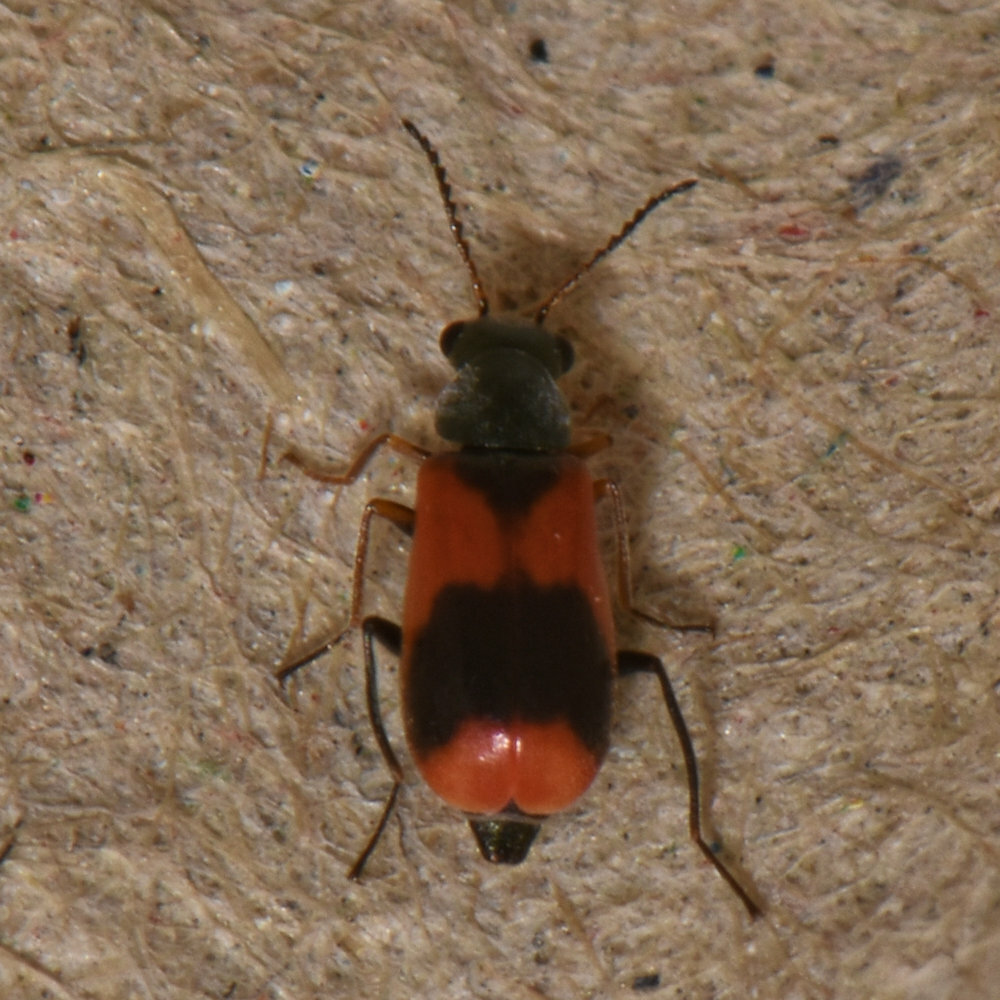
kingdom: Animalia
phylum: Arthropoda
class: Insecta
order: Coleoptera
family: Melyridae
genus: Anthocomus
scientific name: Anthocomus equestris
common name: Black-banded soft-winged flower beetle
